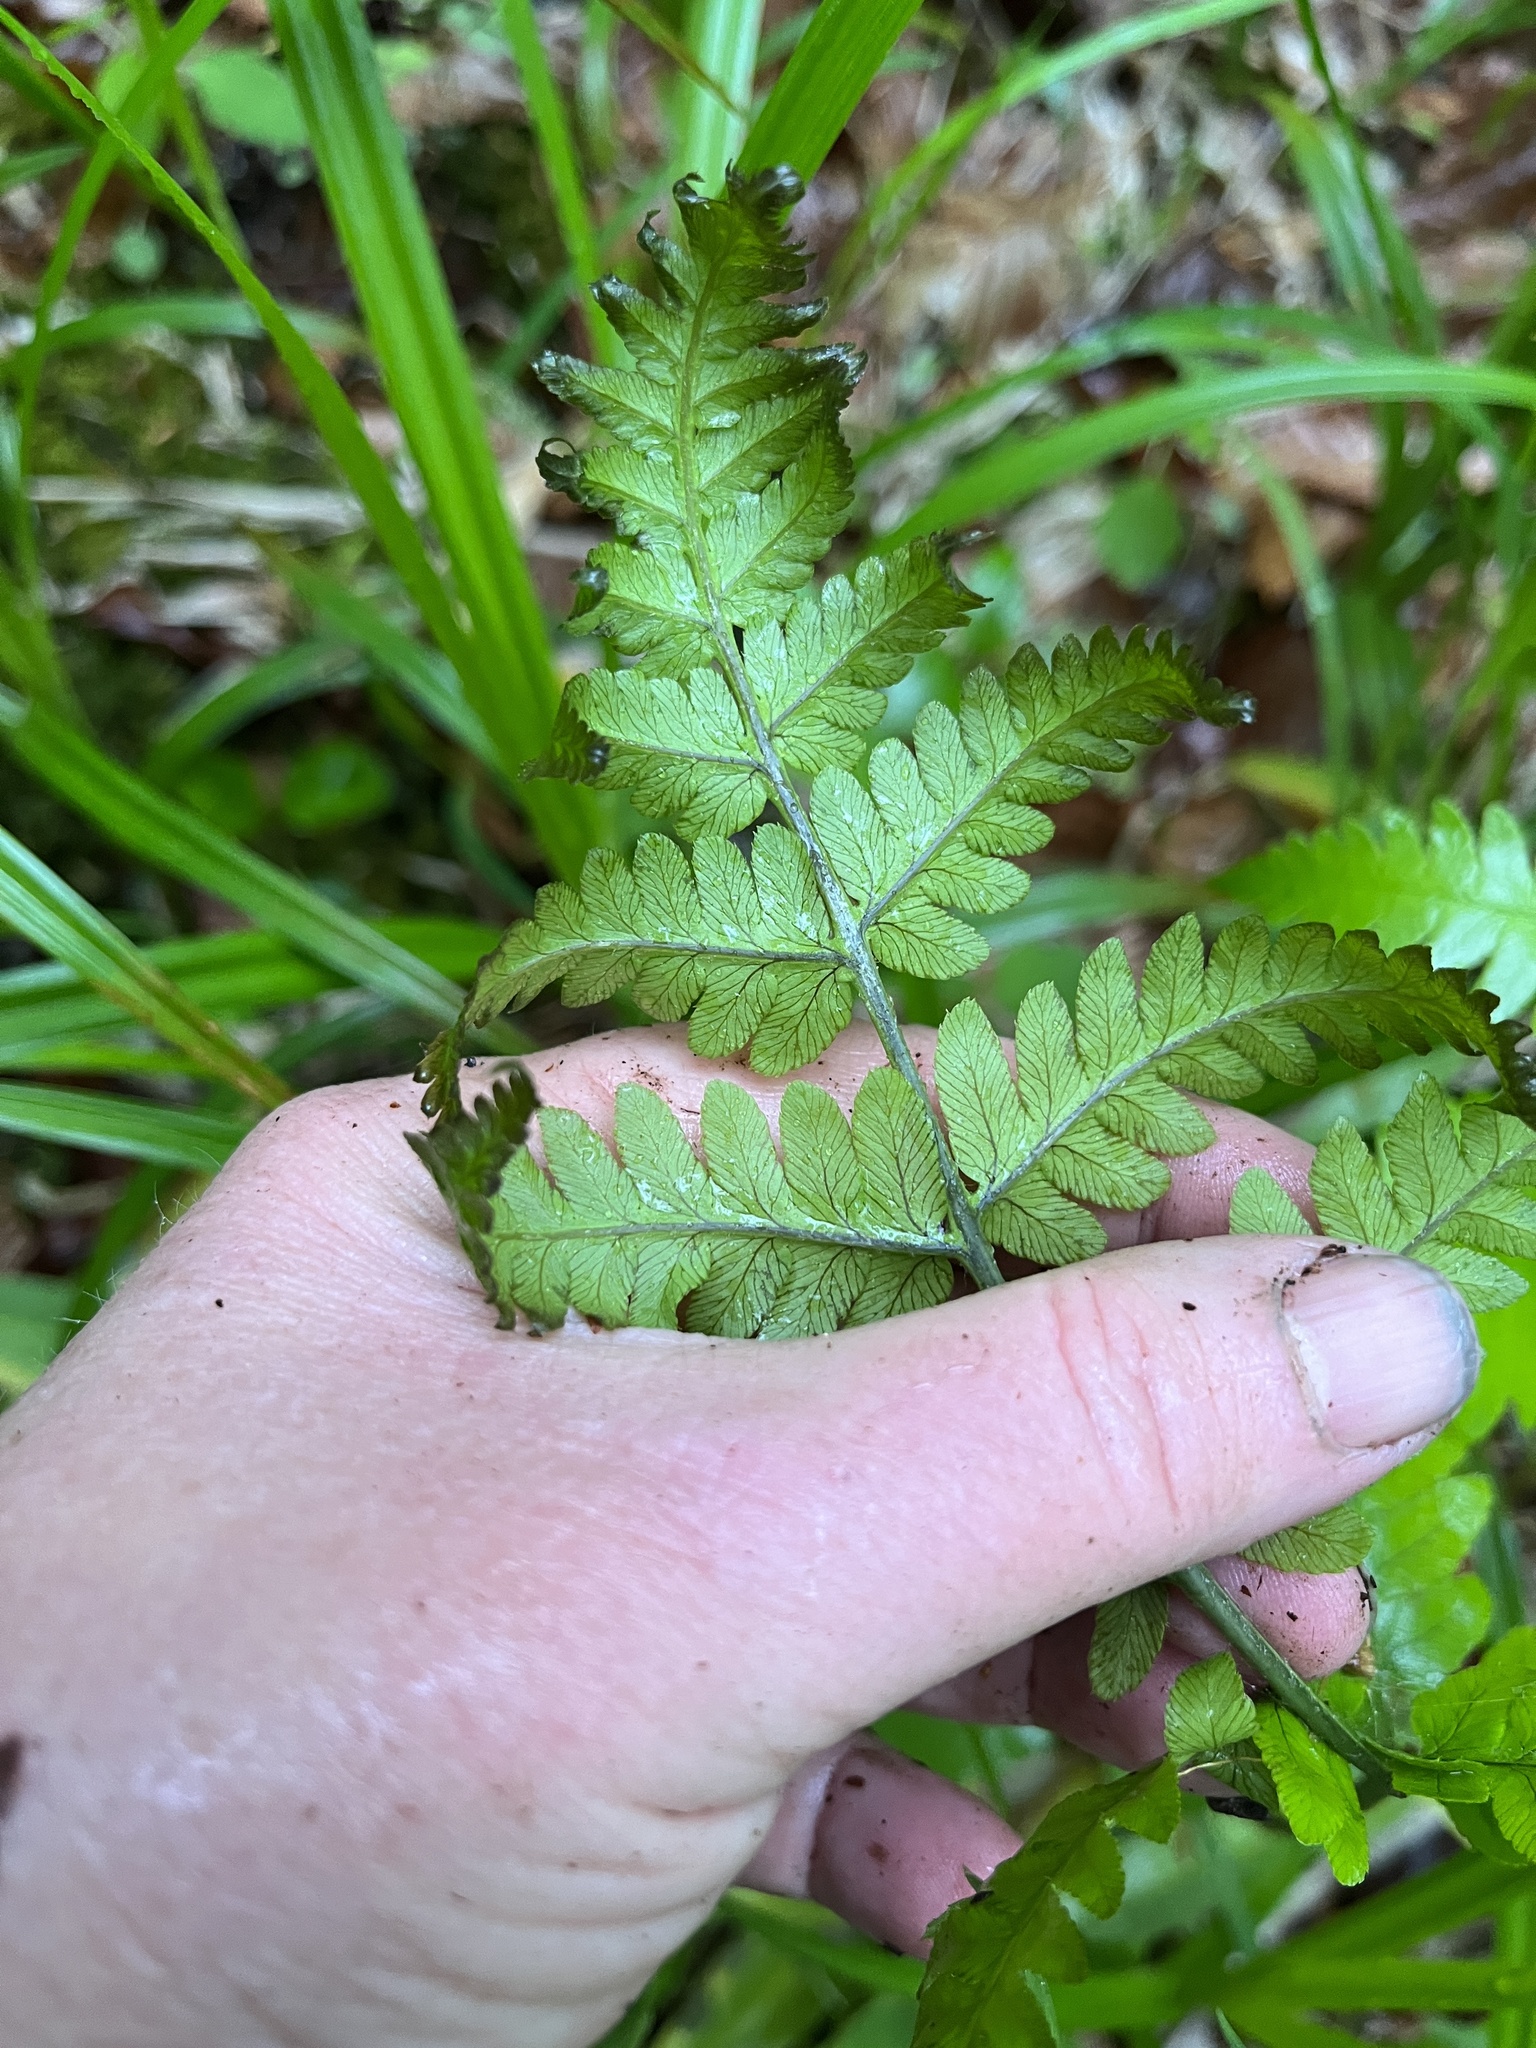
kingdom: Plantae
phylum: Tracheophyta
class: Polypodiopsida
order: Polypodiales
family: Dryopteridaceae
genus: Dryopteris
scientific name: Dryopteris goldieana
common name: Goldie's fern
